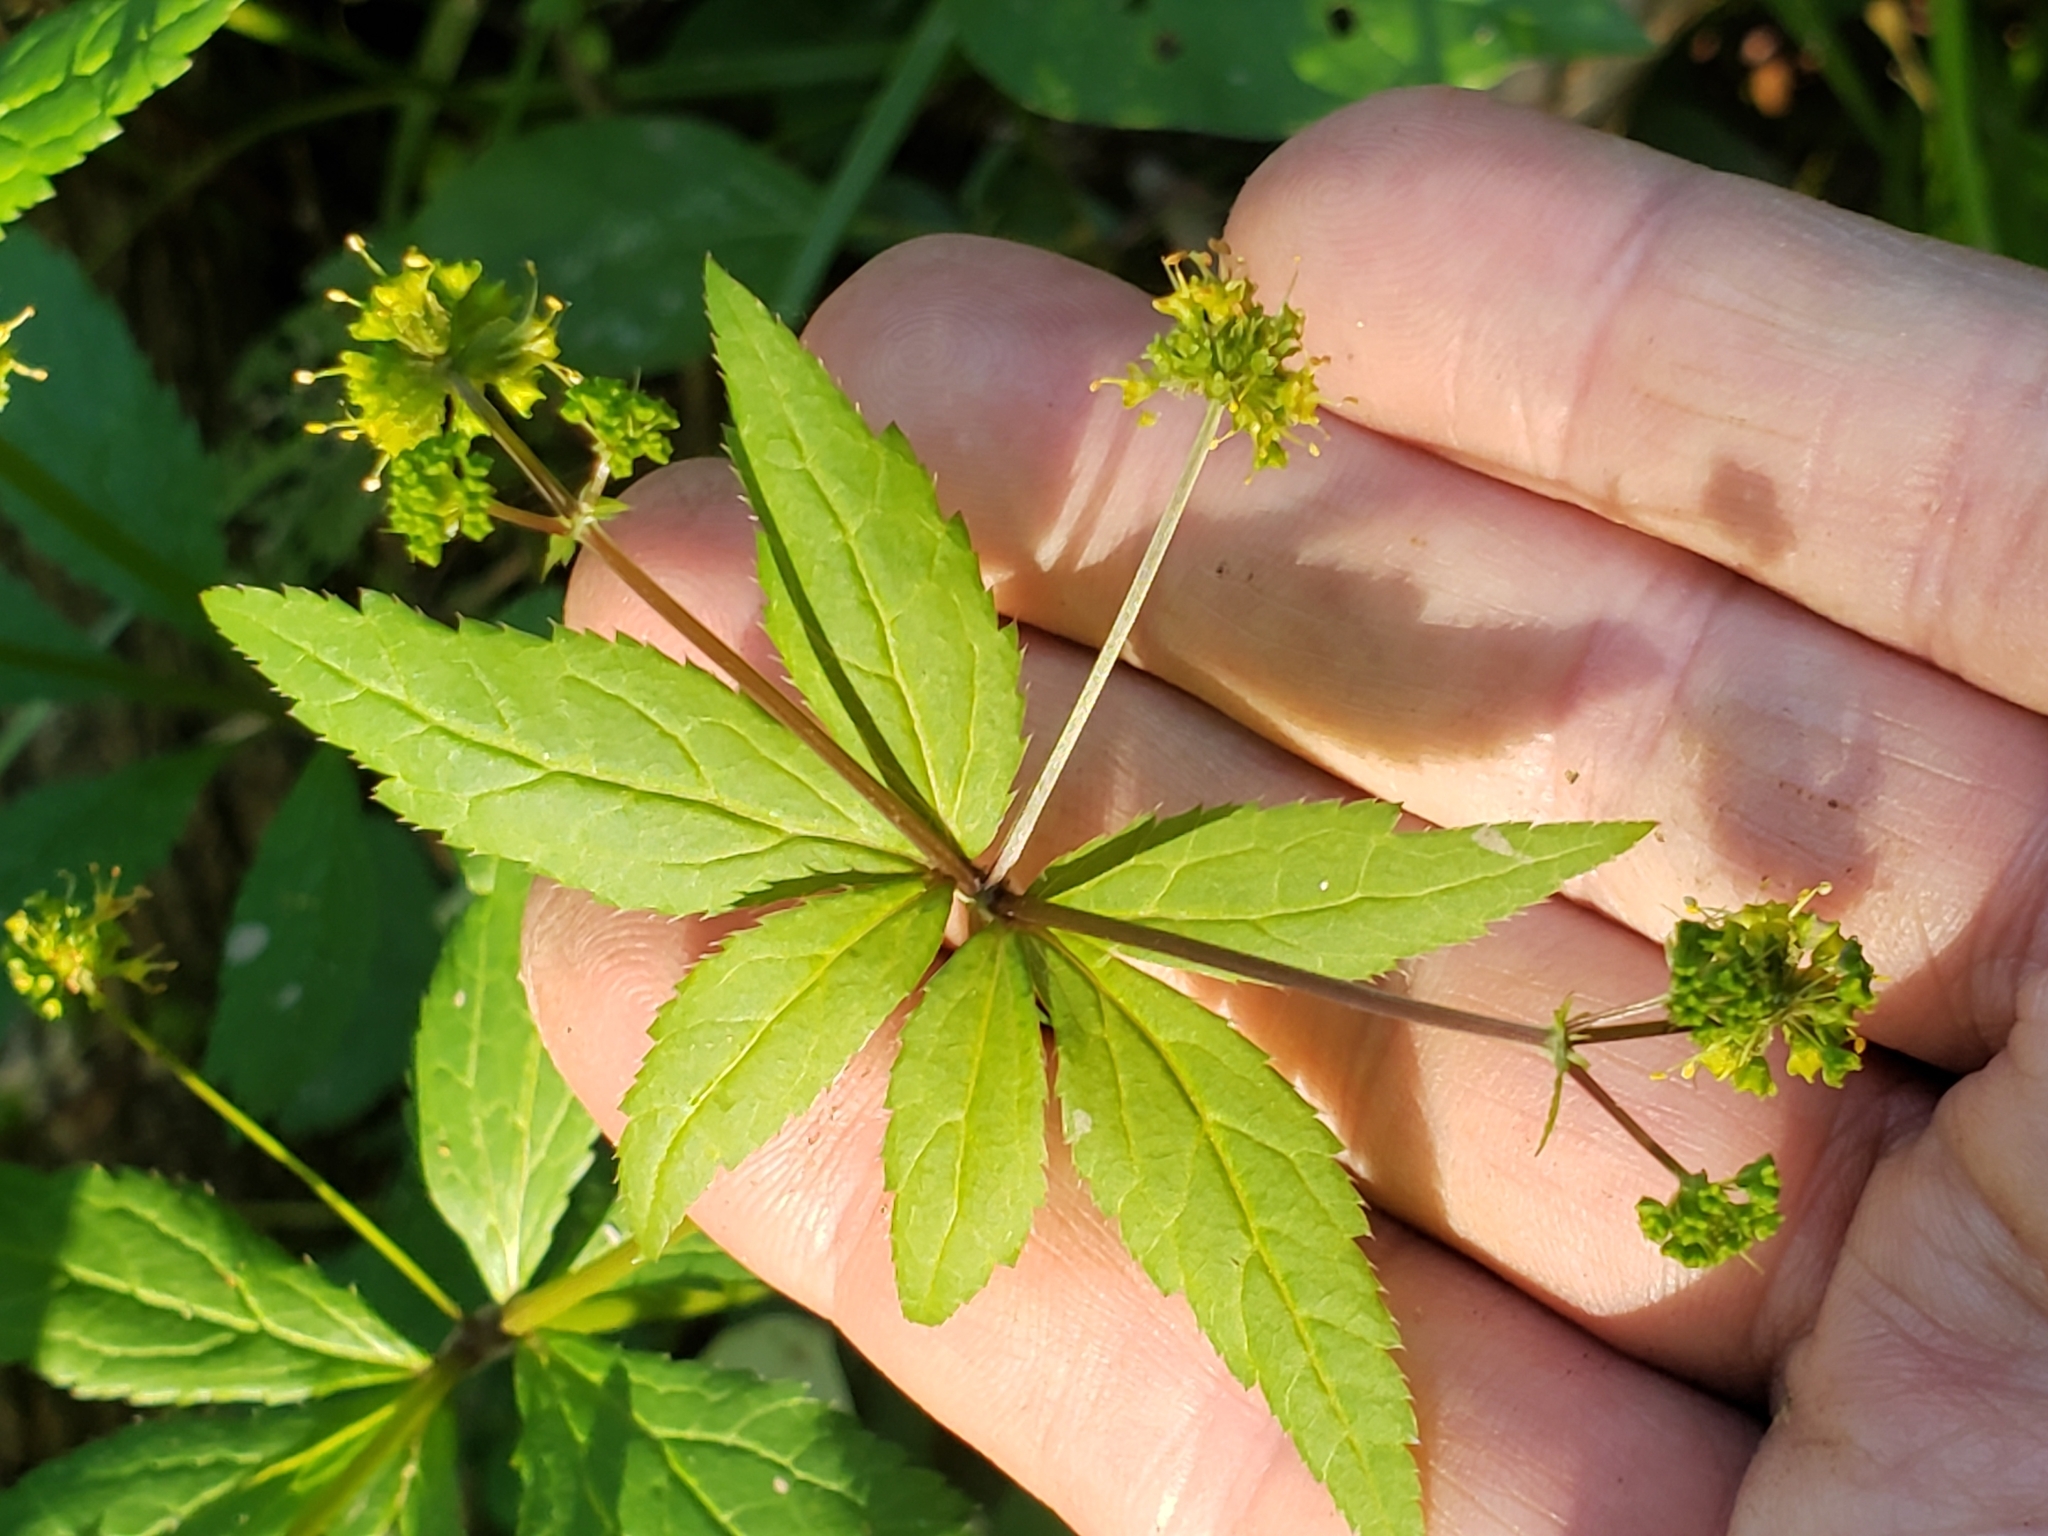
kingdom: Plantae
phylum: Tracheophyta
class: Magnoliopsida
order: Apiales
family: Apiaceae
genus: Sanicula
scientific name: Sanicula odorata
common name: Cluster sanicle
